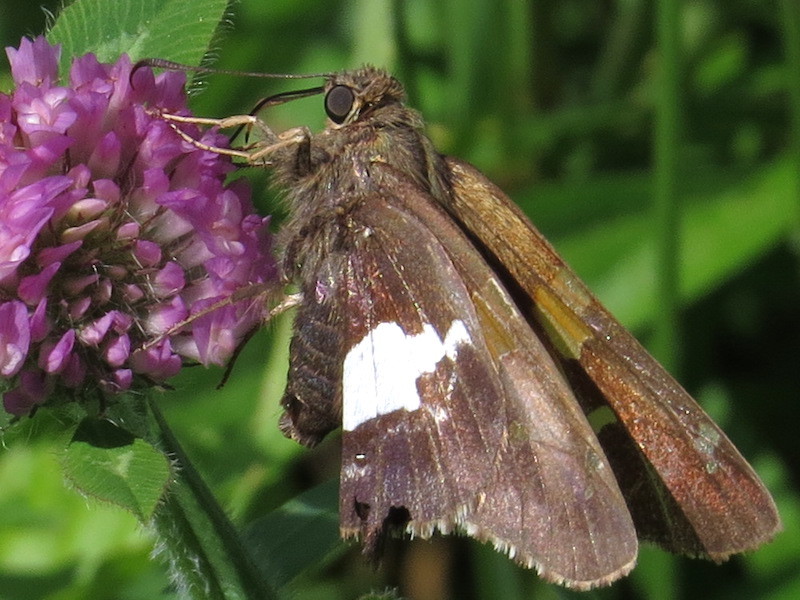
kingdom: Animalia
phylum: Arthropoda
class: Insecta
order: Lepidoptera
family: Hesperiidae
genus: Epargyreus
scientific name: Epargyreus clarus
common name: Silver-spotted skipper
